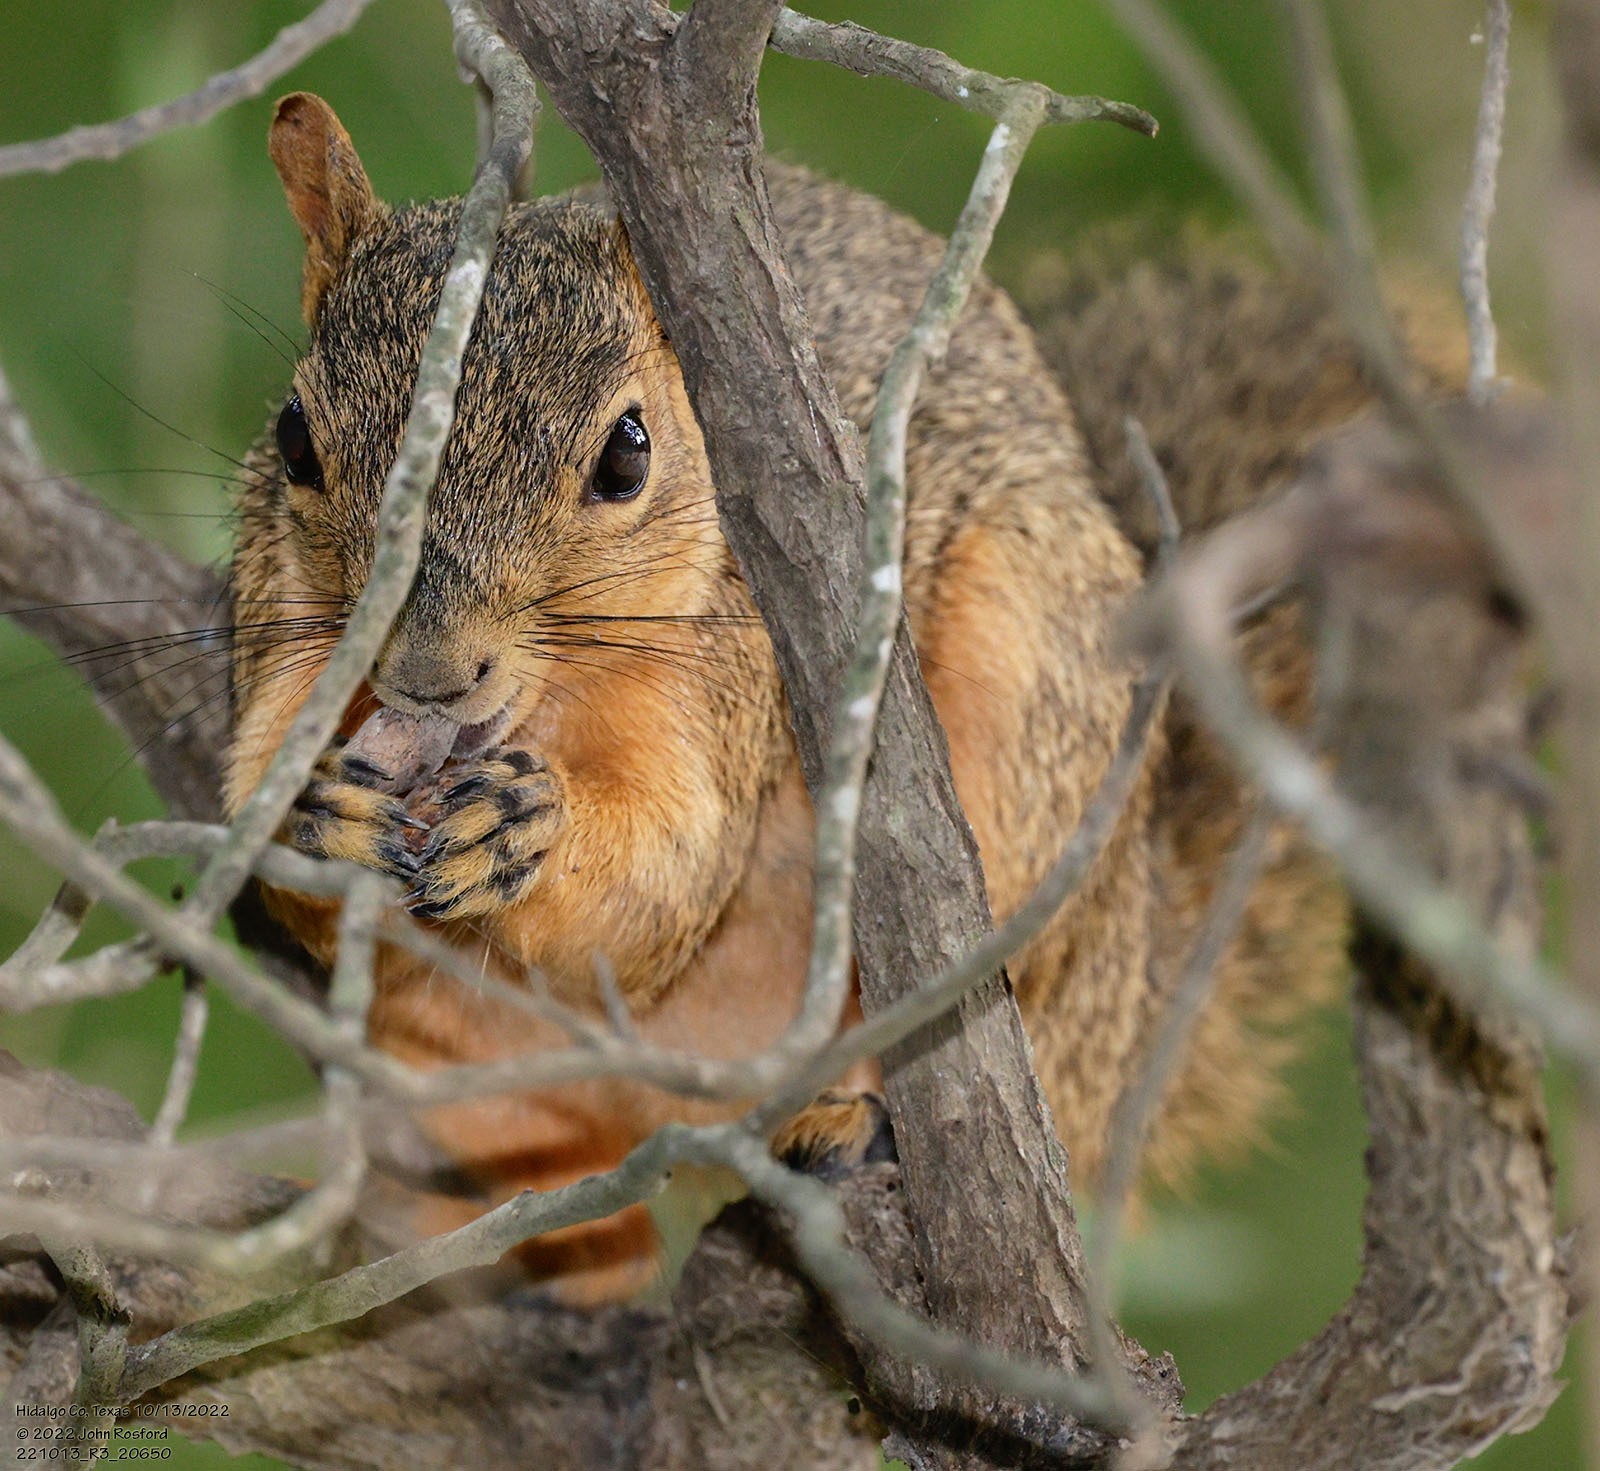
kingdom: Animalia
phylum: Chordata
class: Mammalia
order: Rodentia
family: Sciuridae
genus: Sciurus
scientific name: Sciurus niger
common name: Fox squirrel
